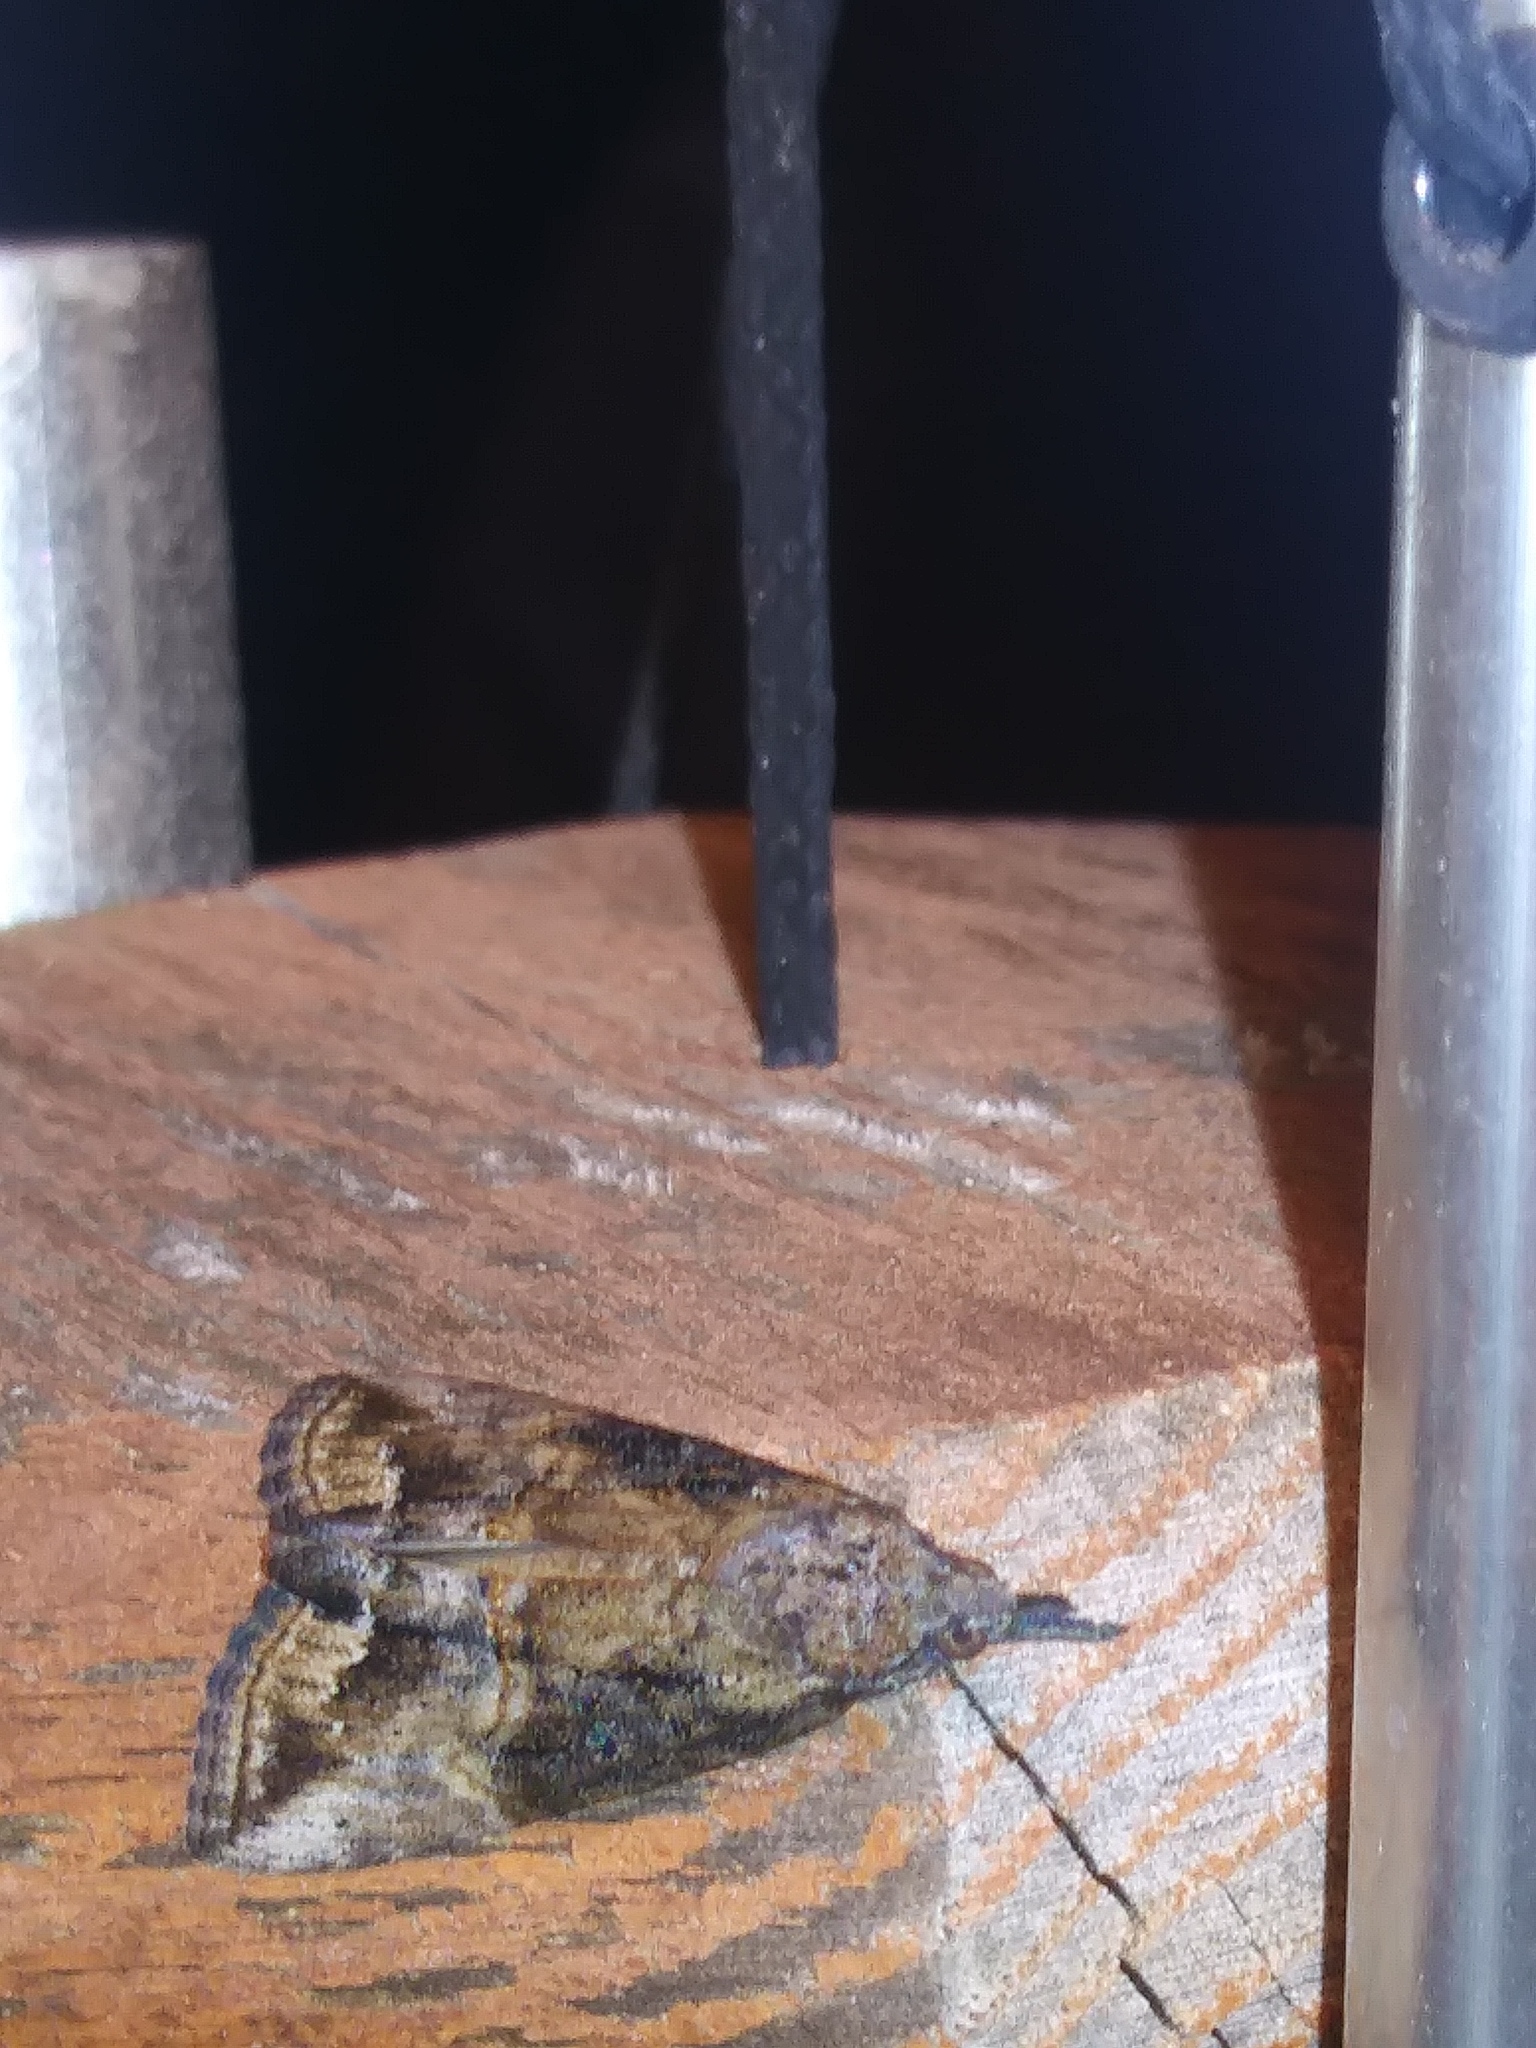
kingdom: Animalia
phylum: Arthropoda
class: Insecta
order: Lepidoptera
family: Erebidae
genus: Hypena
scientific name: Hypena scabra
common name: Green cloverworm
